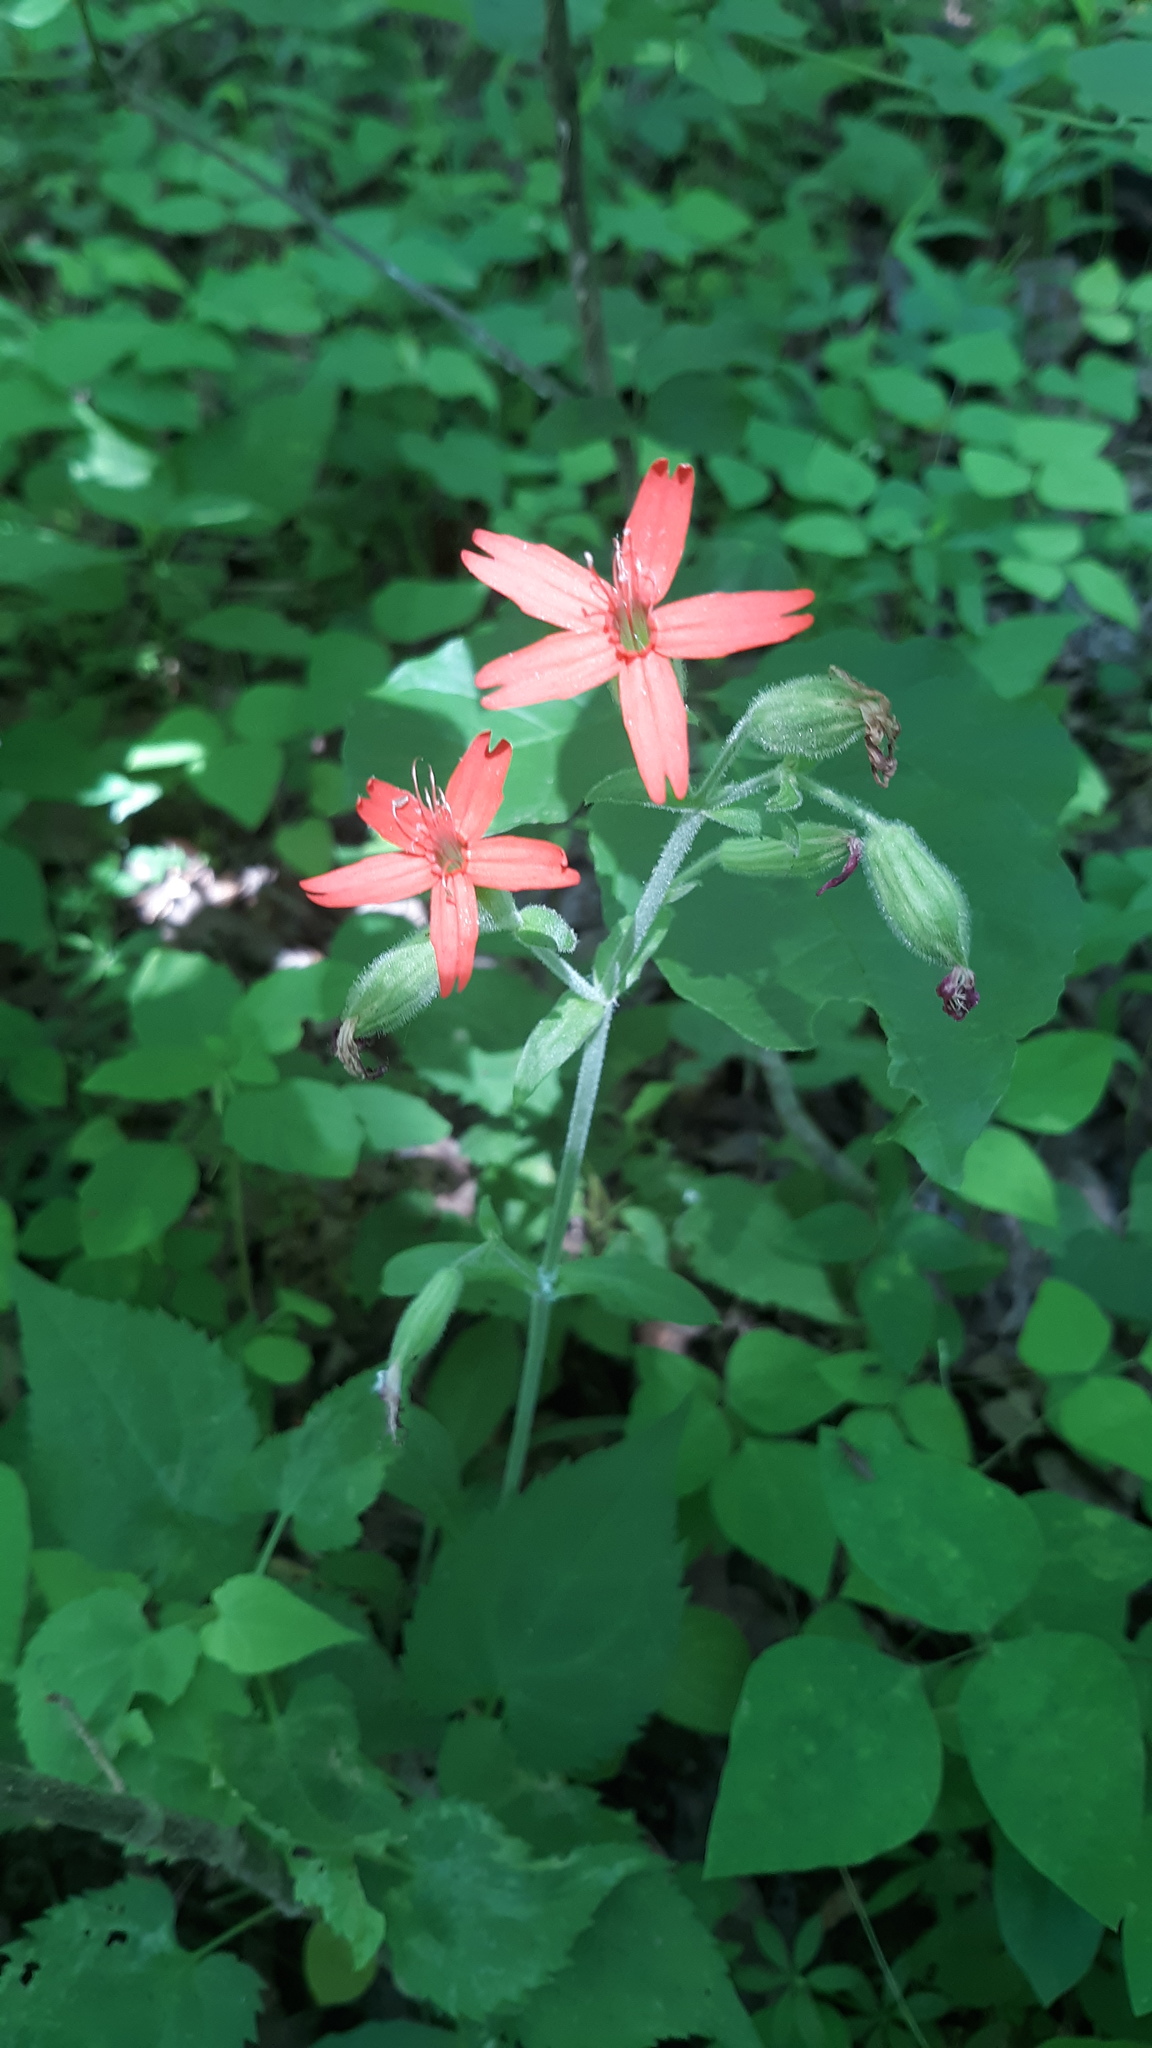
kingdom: Plantae
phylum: Tracheophyta
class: Magnoliopsida
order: Caryophyllales
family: Caryophyllaceae
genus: Silene
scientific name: Silene virginica
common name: Fire-pink
